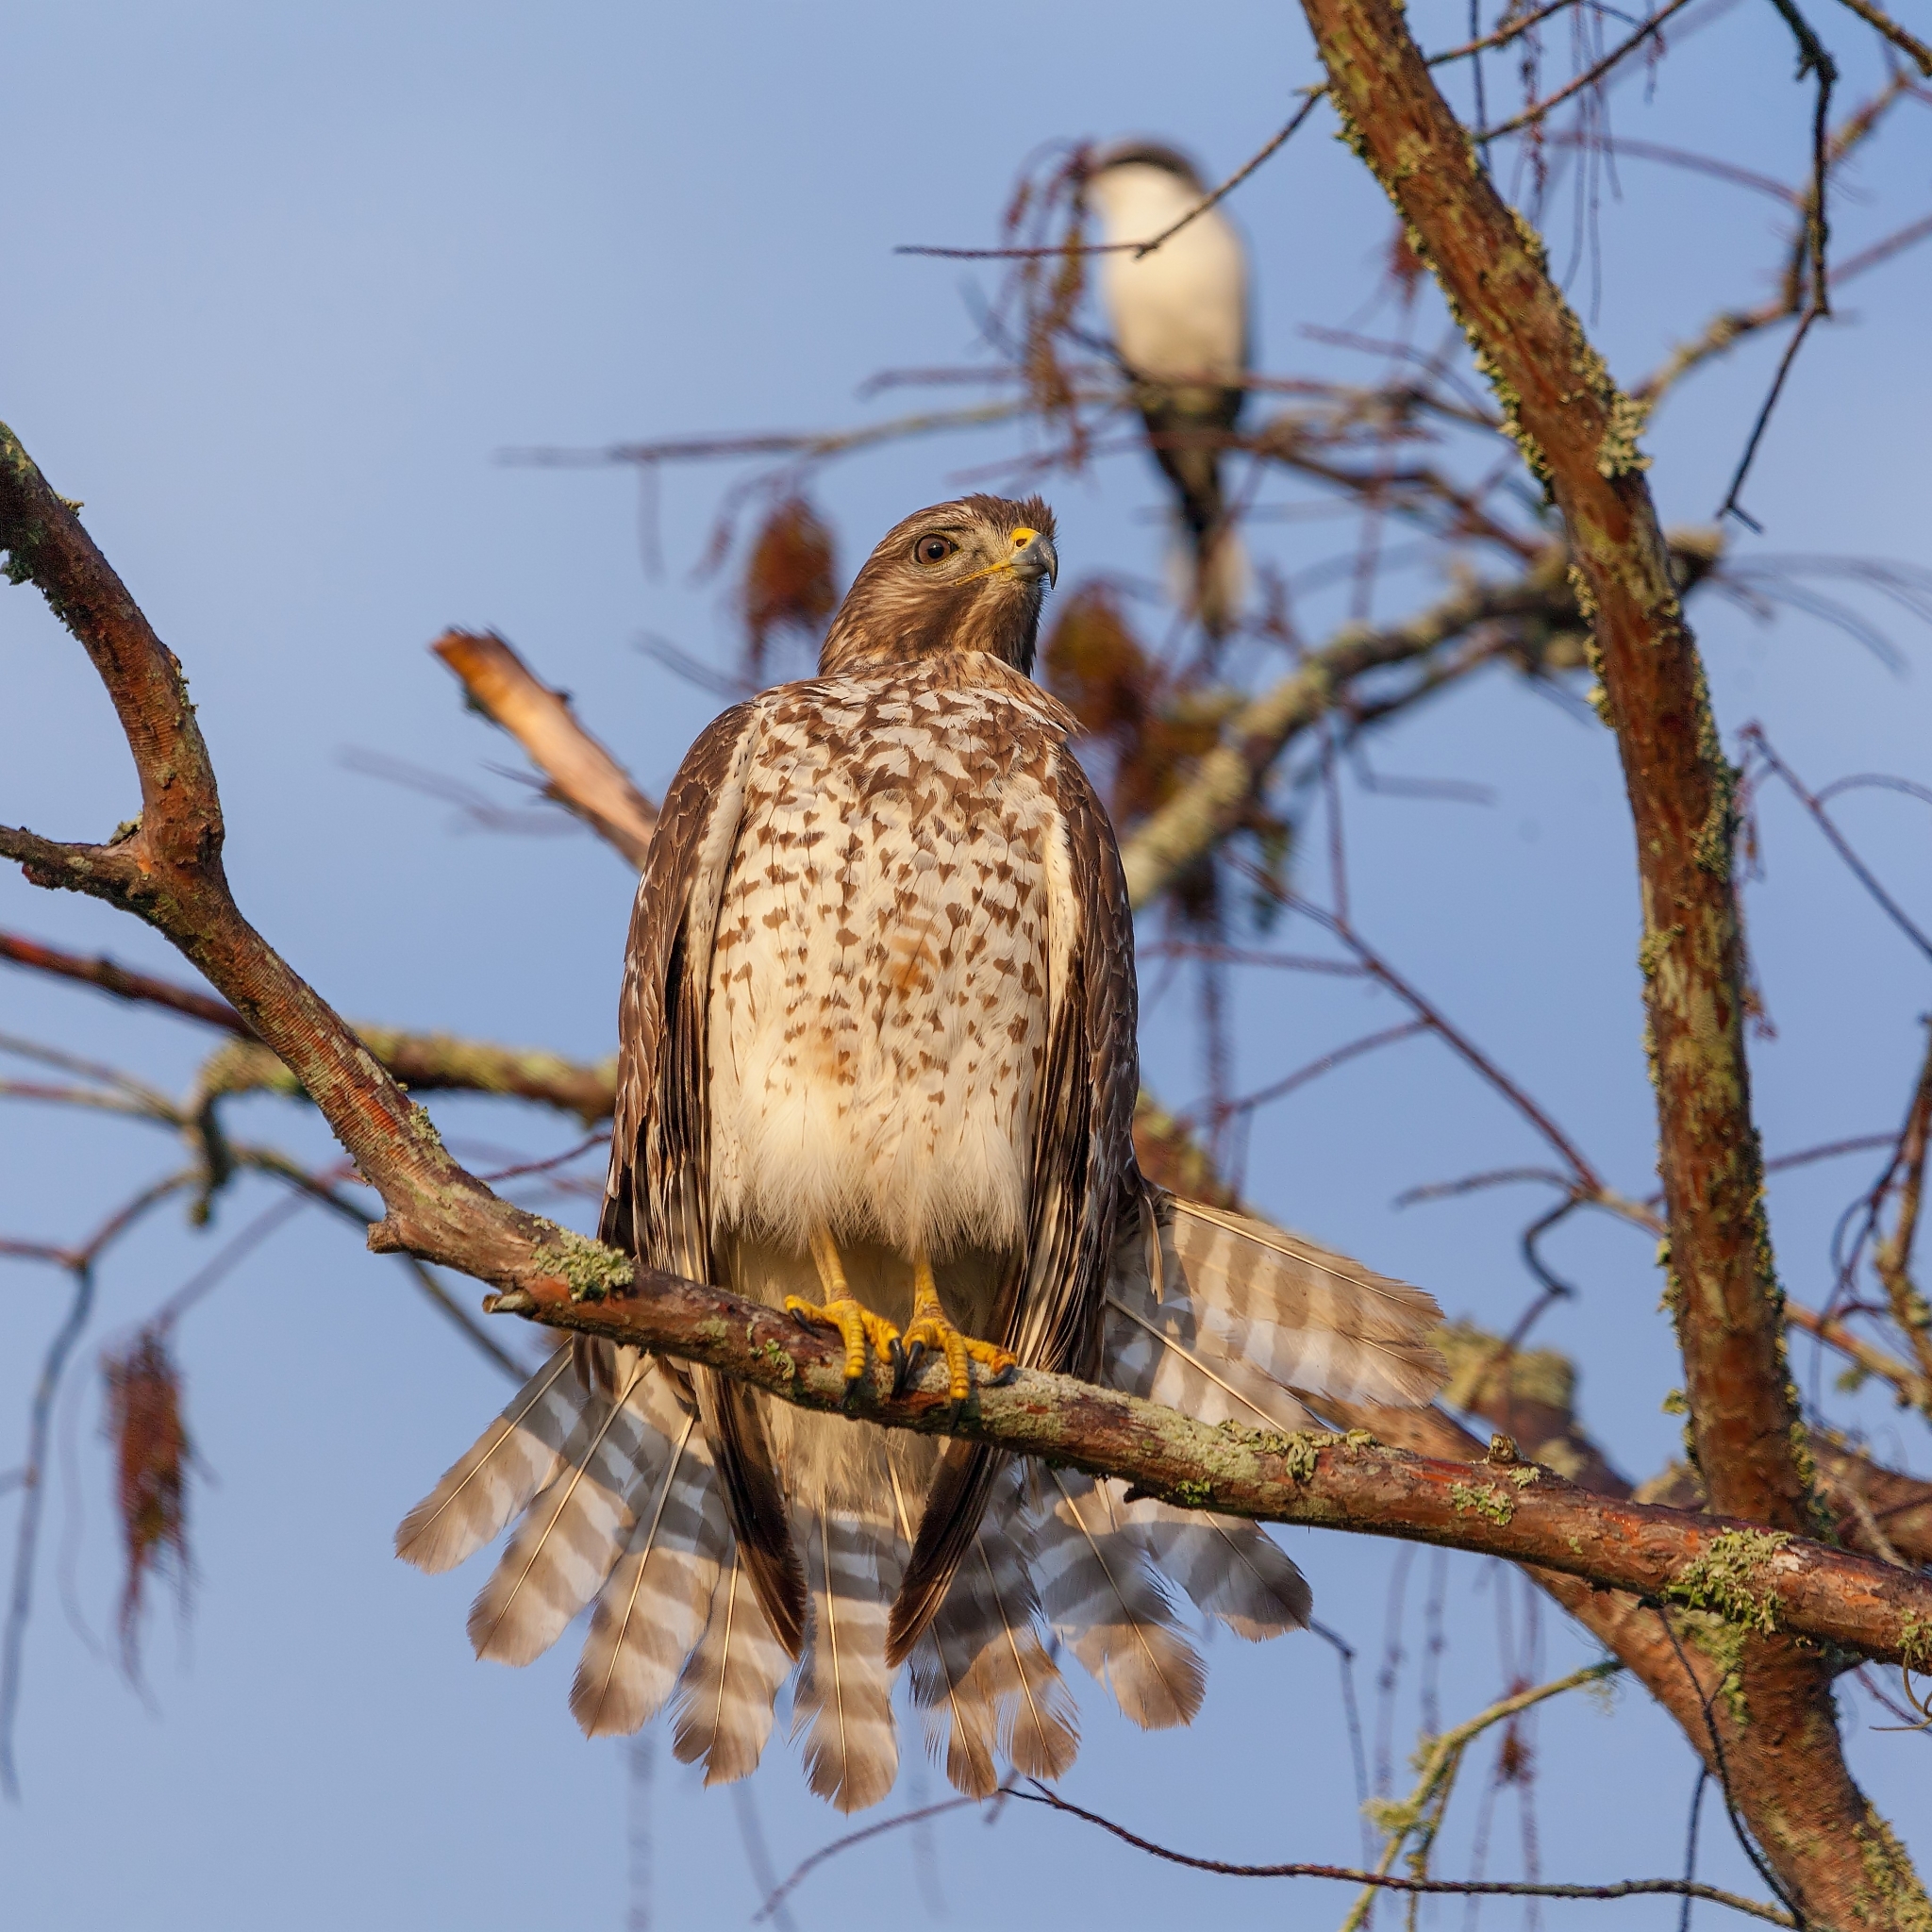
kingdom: Animalia
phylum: Chordata
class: Aves
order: Accipitriformes
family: Accipitridae
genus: Buteo
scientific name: Buteo lineatus
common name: Red-shouldered hawk
